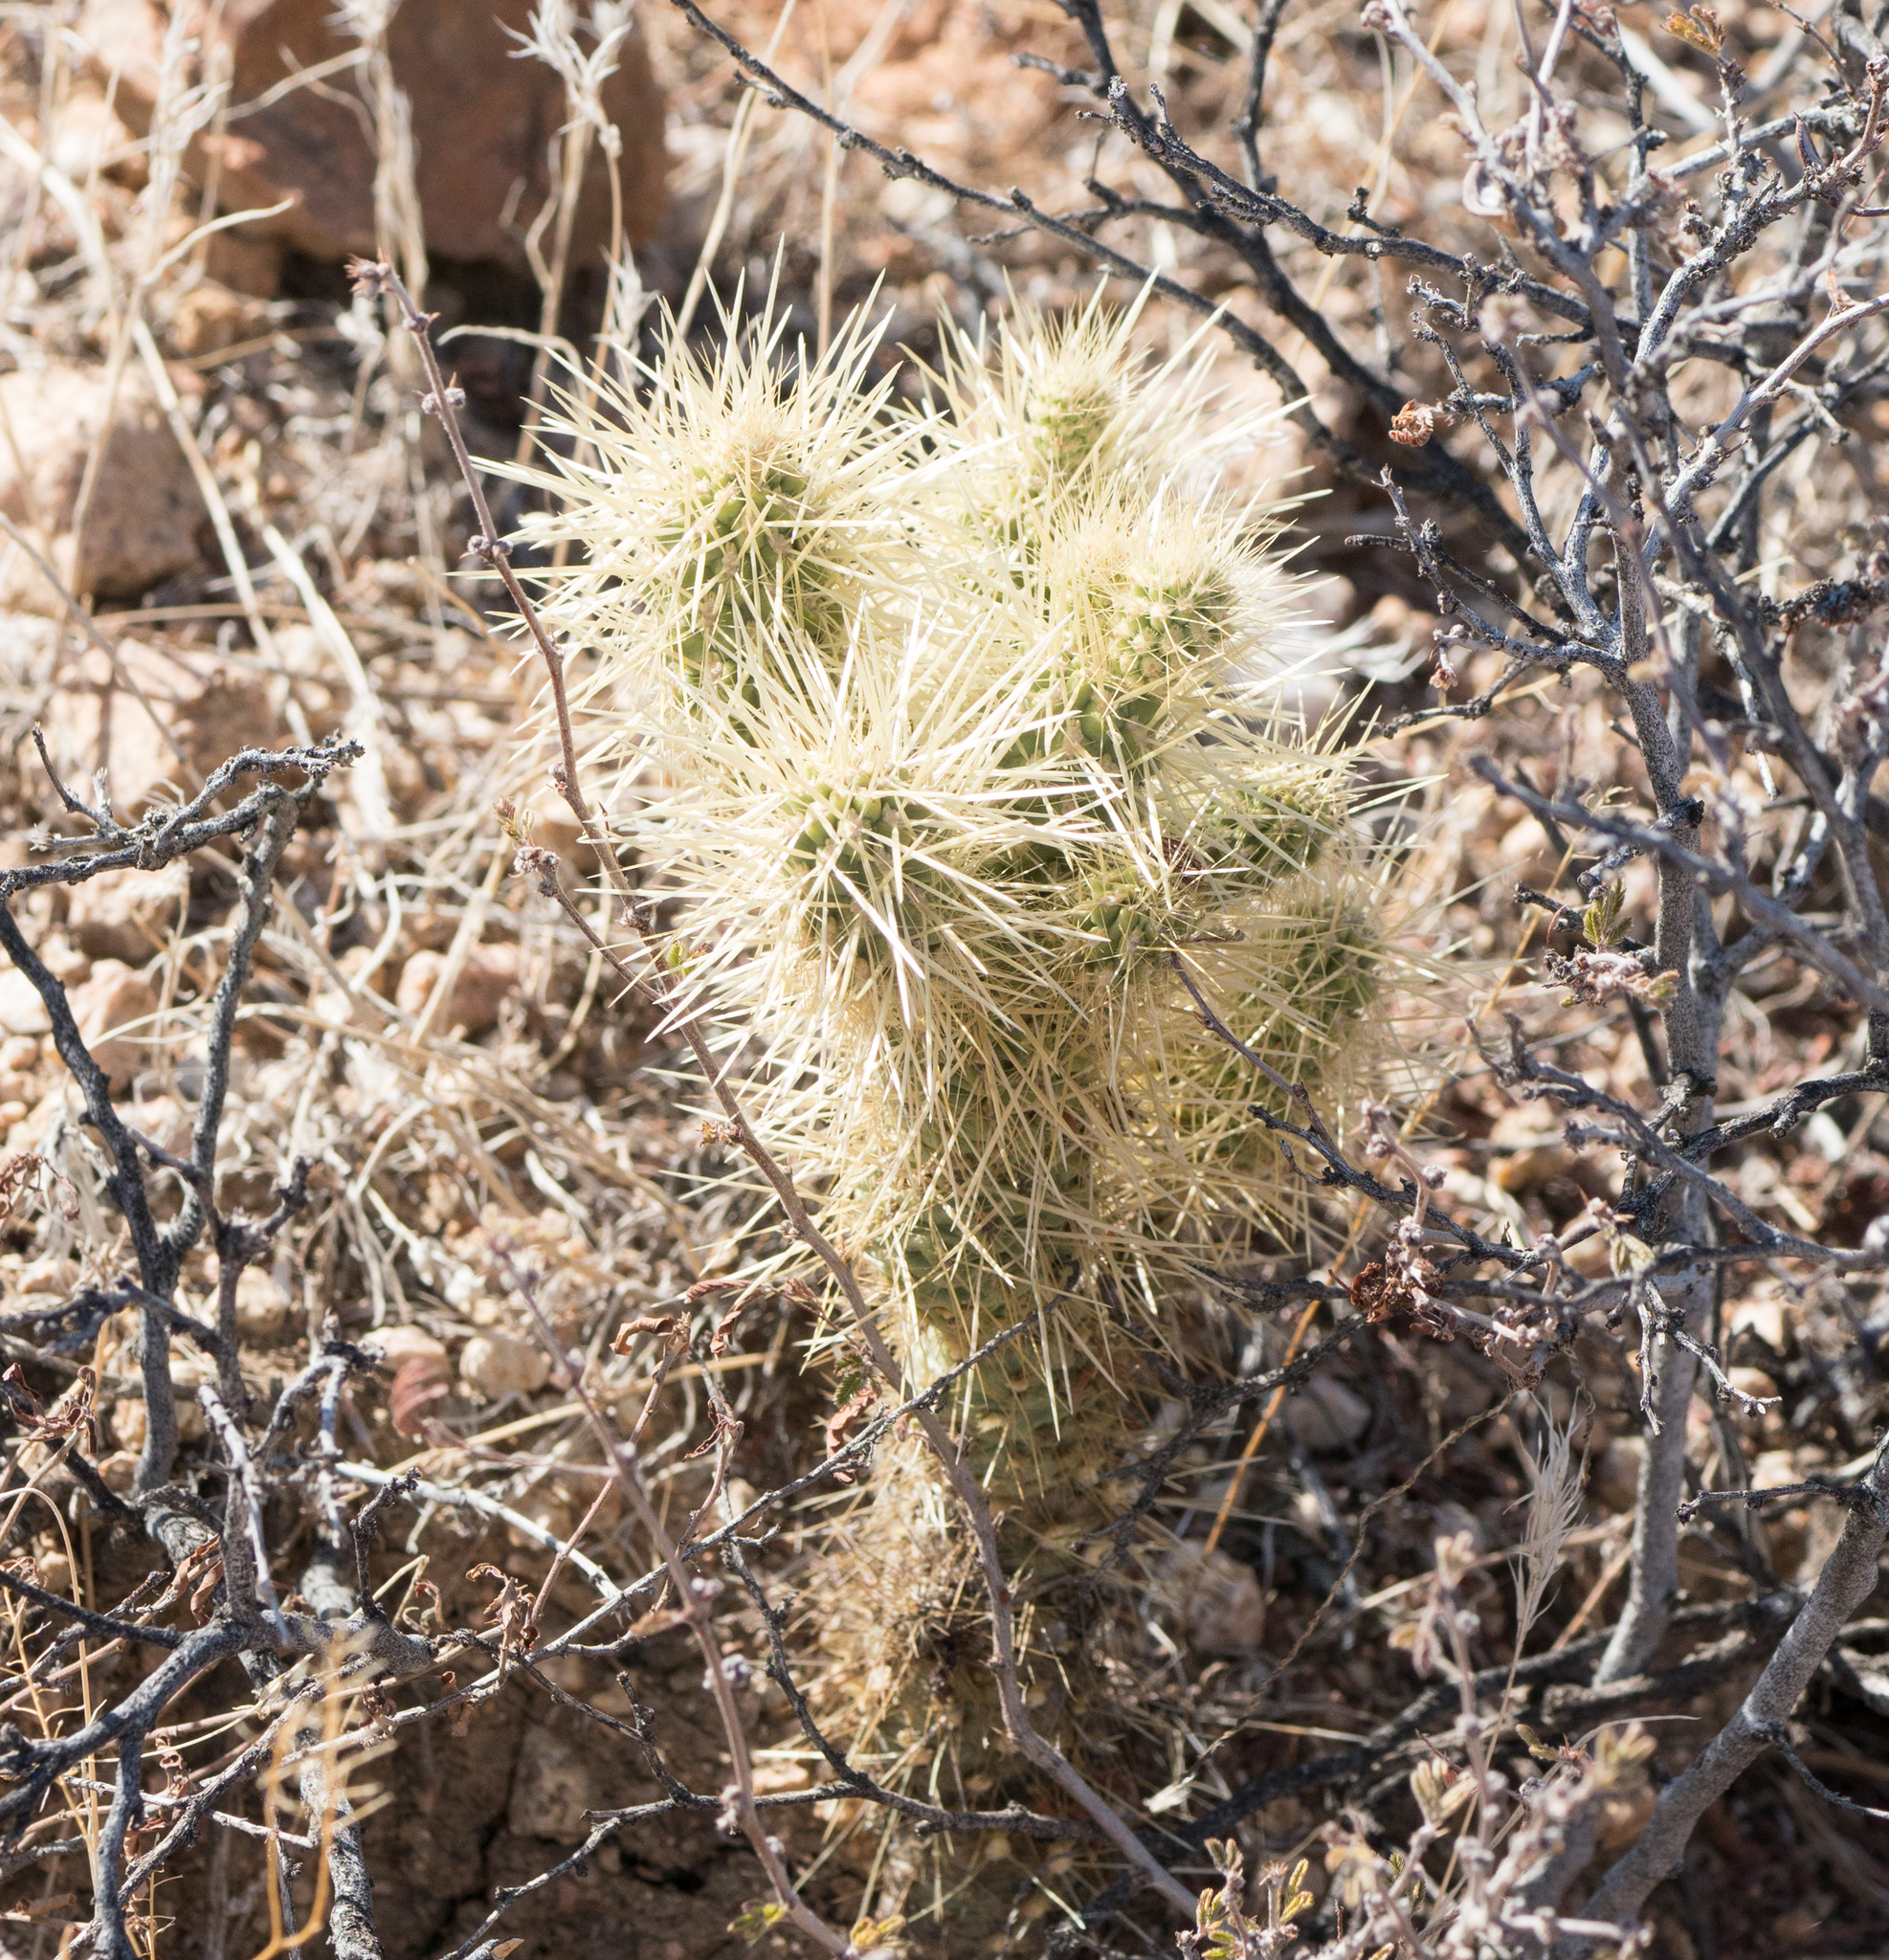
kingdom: Plantae
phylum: Tracheophyta
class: Magnoliopsida
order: Caryophyllales
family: Cactaceae
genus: Cylindropuntia
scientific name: Cylindropuntia fosbergii
